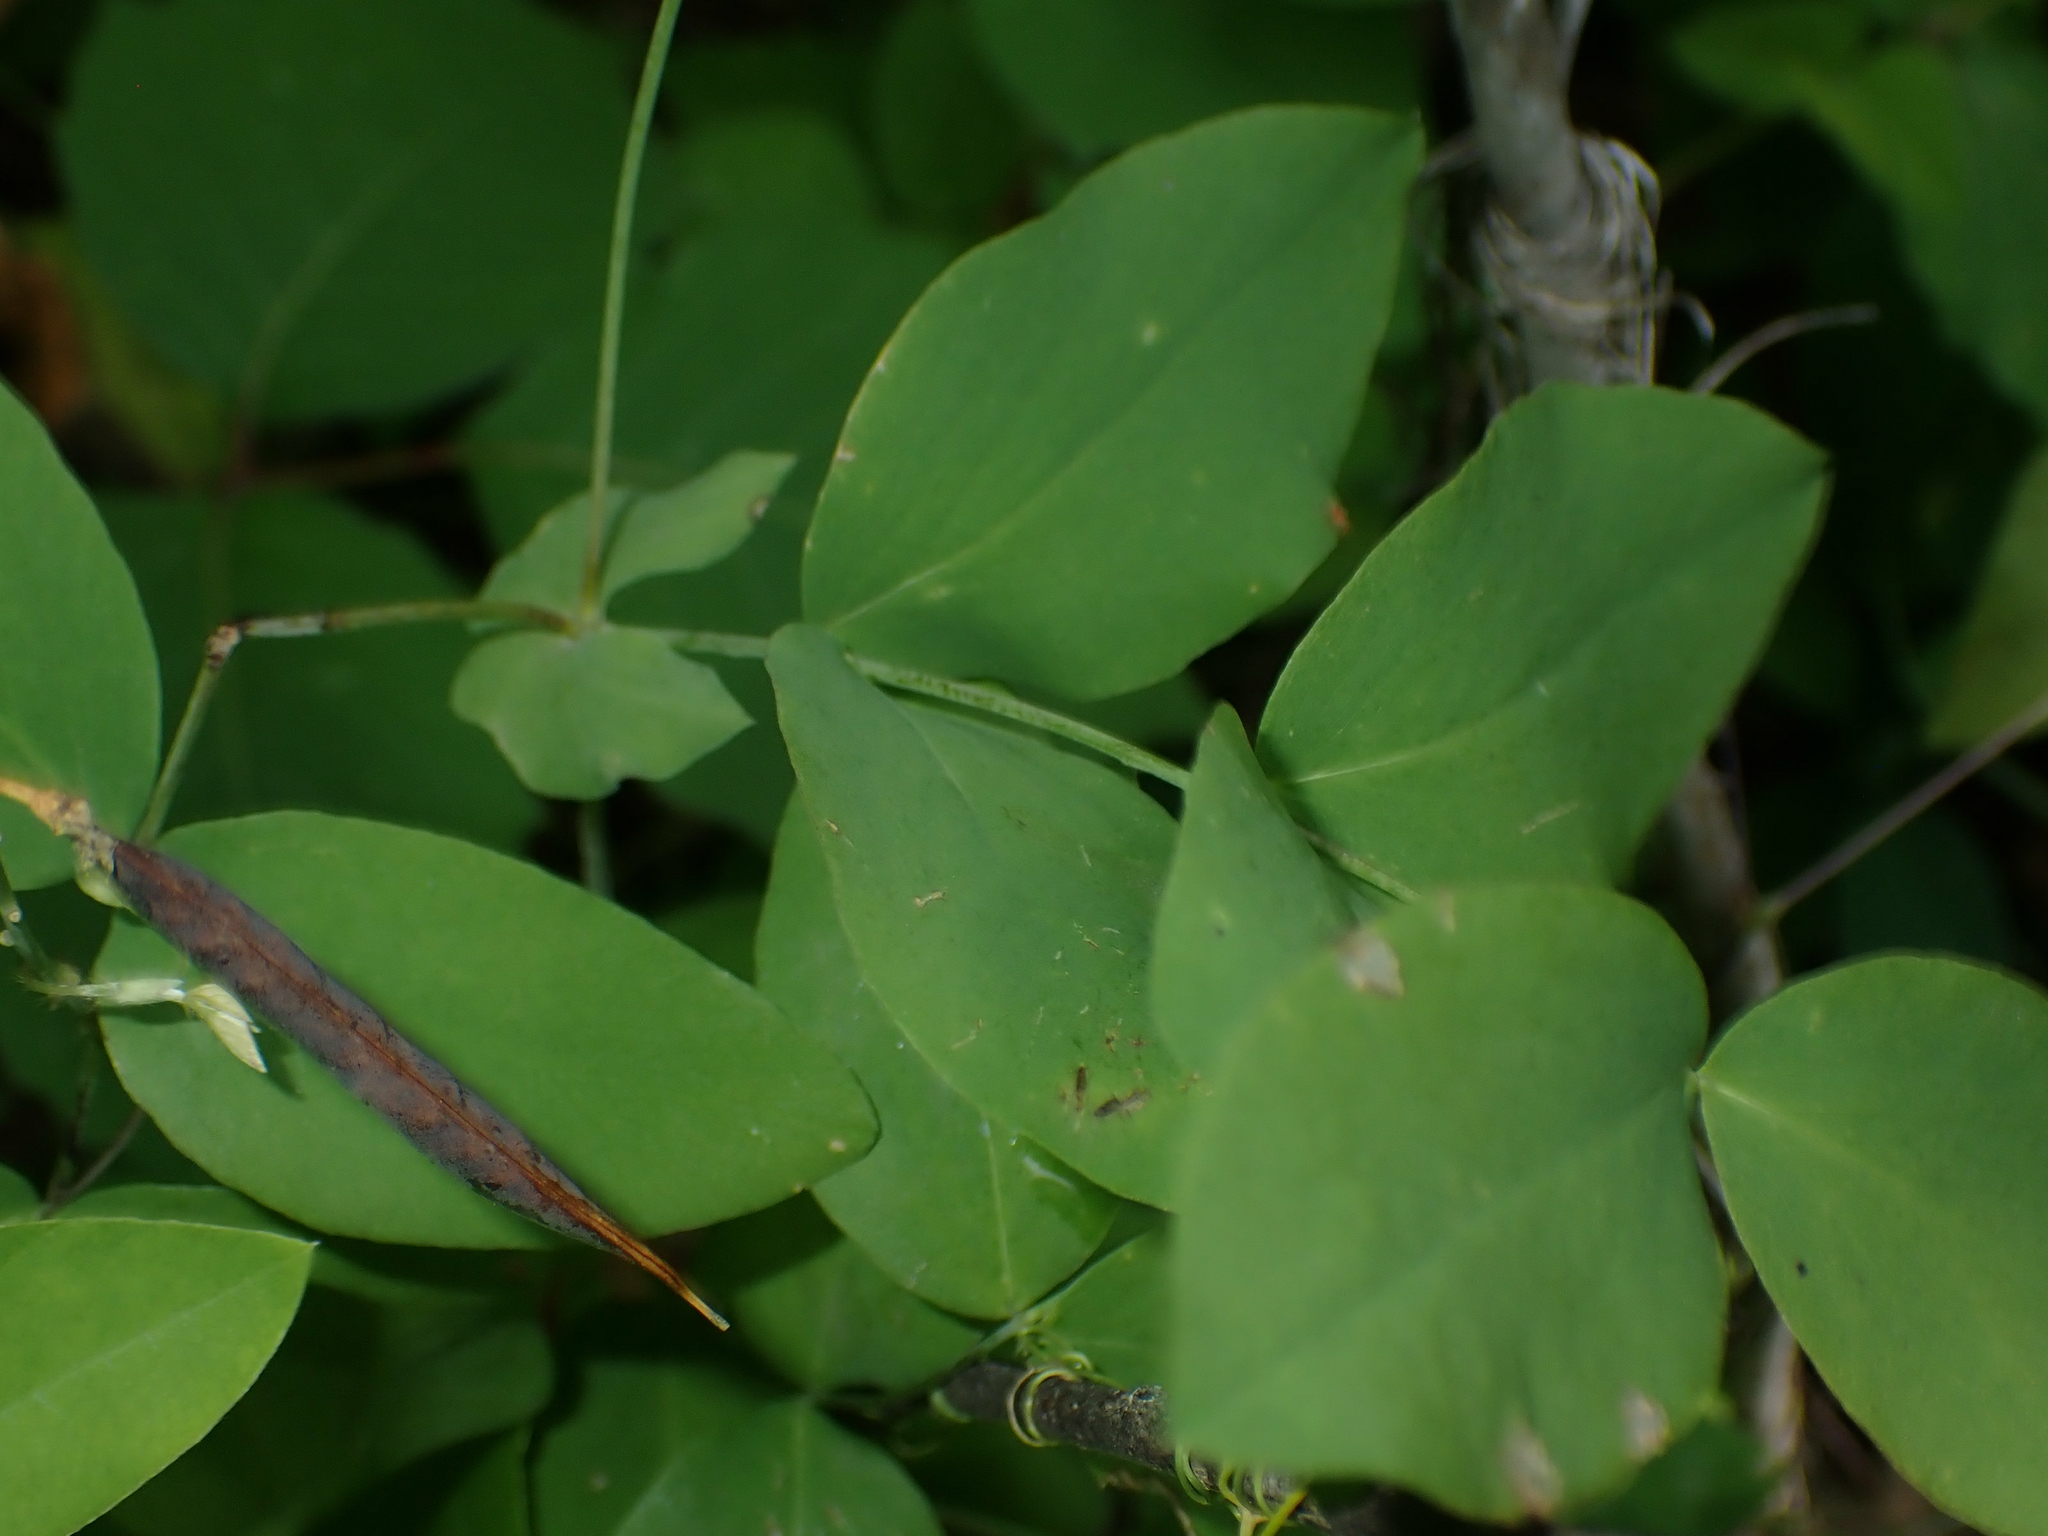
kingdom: Plantae
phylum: Tracheophyta
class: Magnoliopsida
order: Fabales
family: Fabaceae
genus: Lathyrus
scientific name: Lathyrus ochroleucus
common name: Pale vetchling
